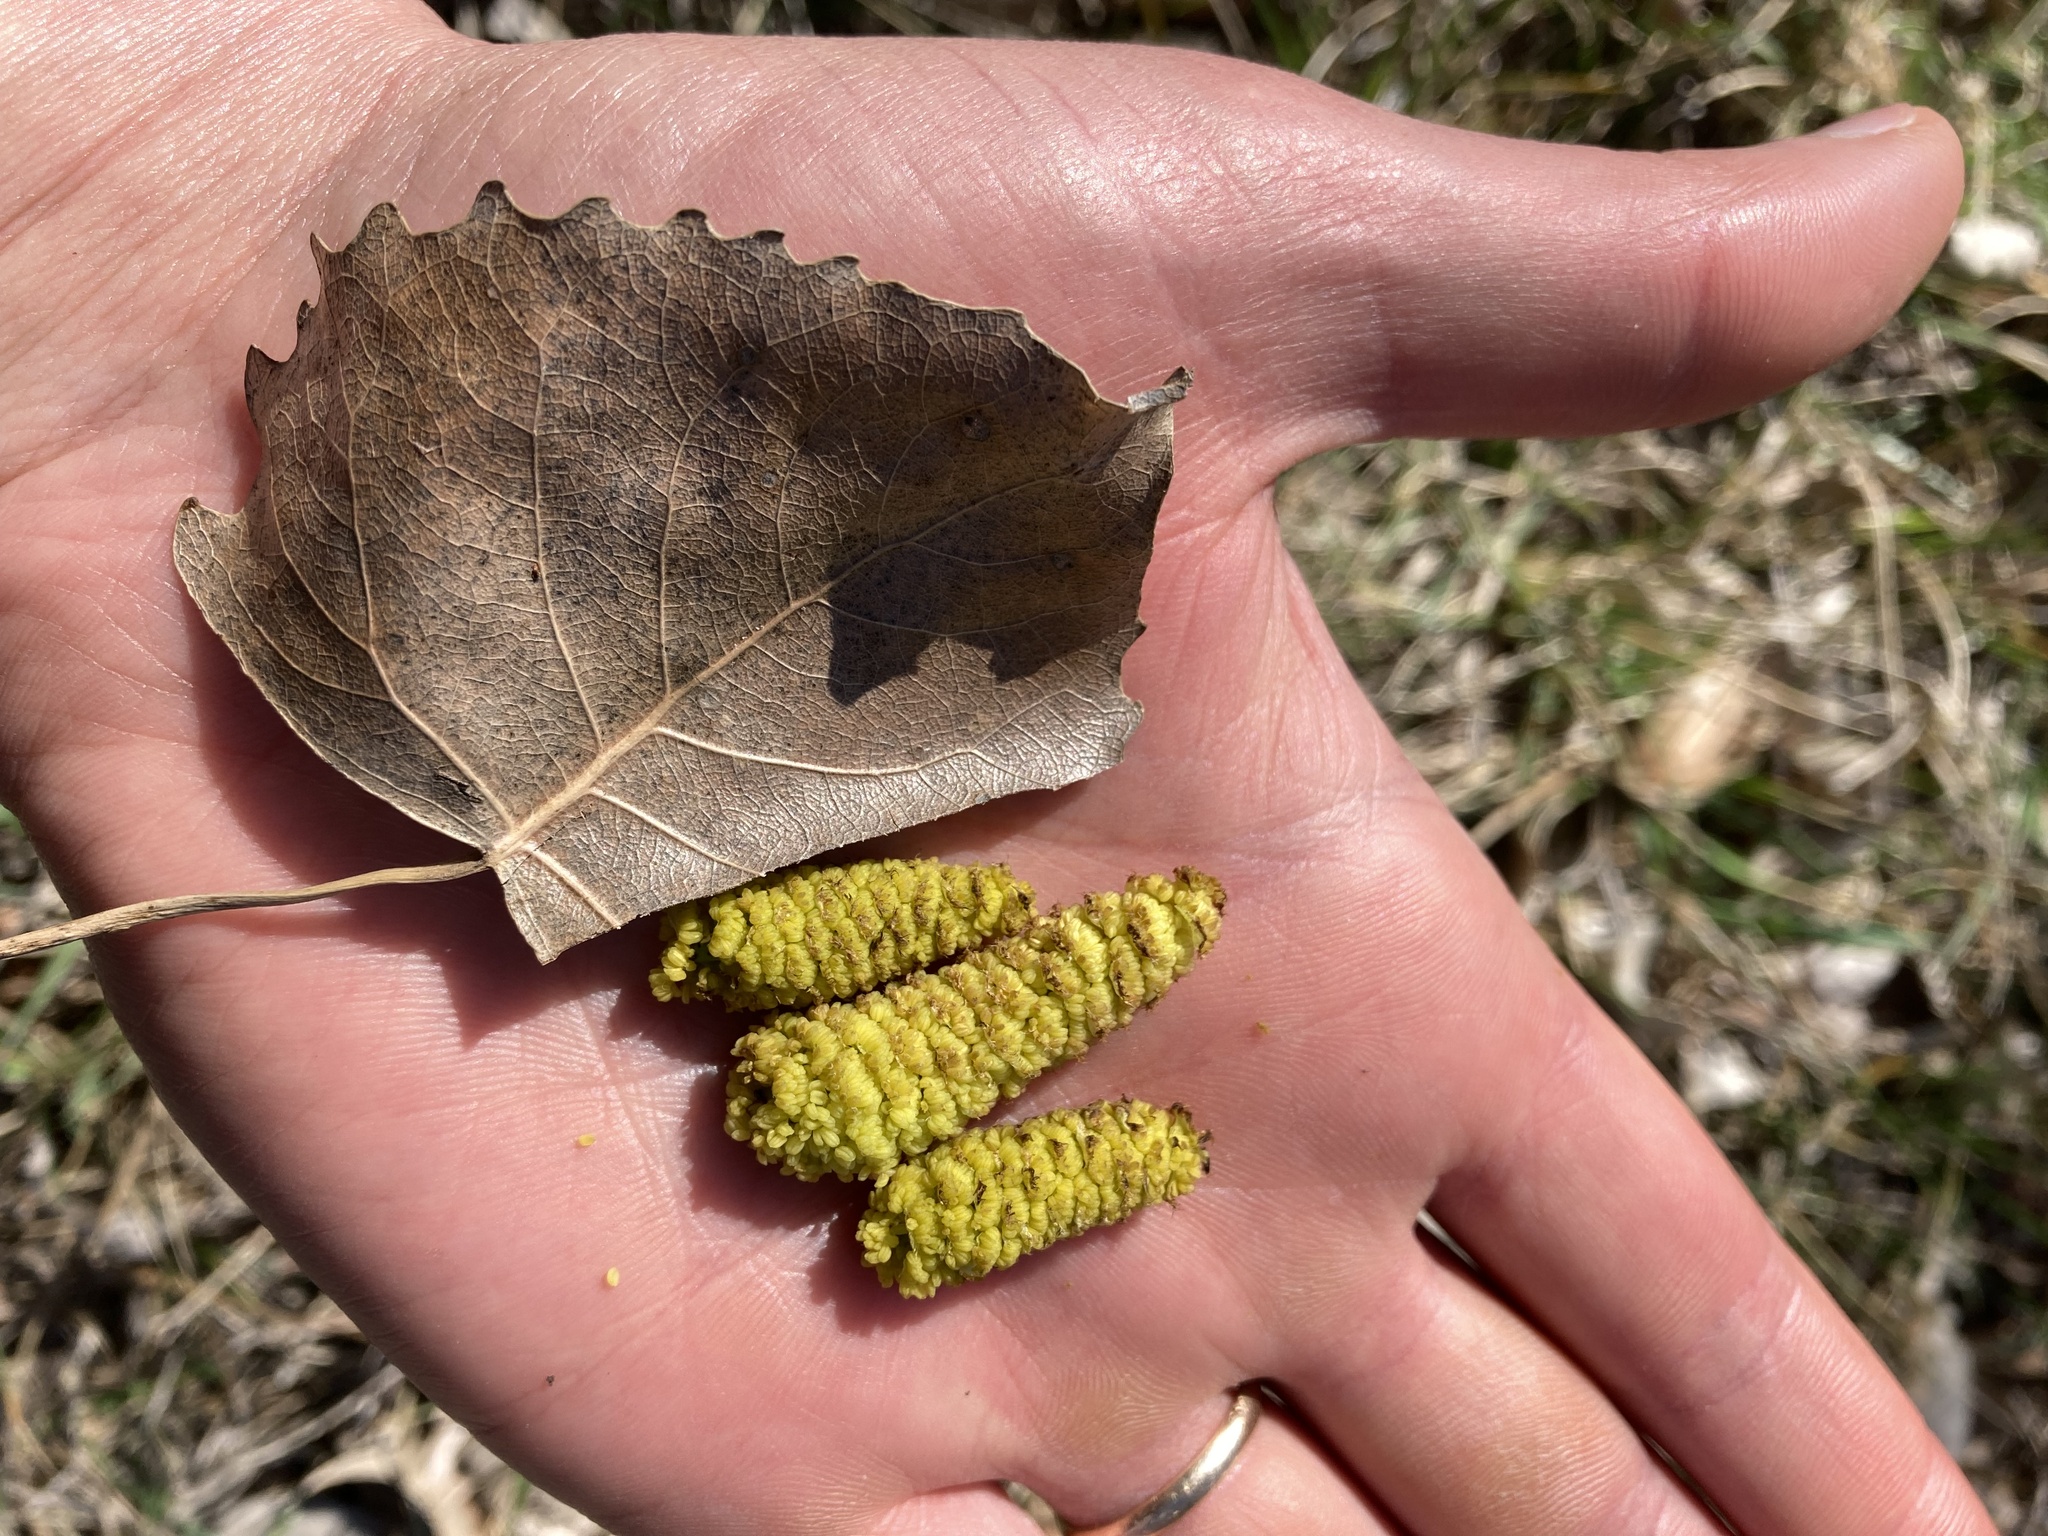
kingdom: Plantae
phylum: Tracheophyta
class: Magnoliopsida
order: Malpighiales
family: Salicaceae
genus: Populus
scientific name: Populus deltoides
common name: Eastern cottonwood
